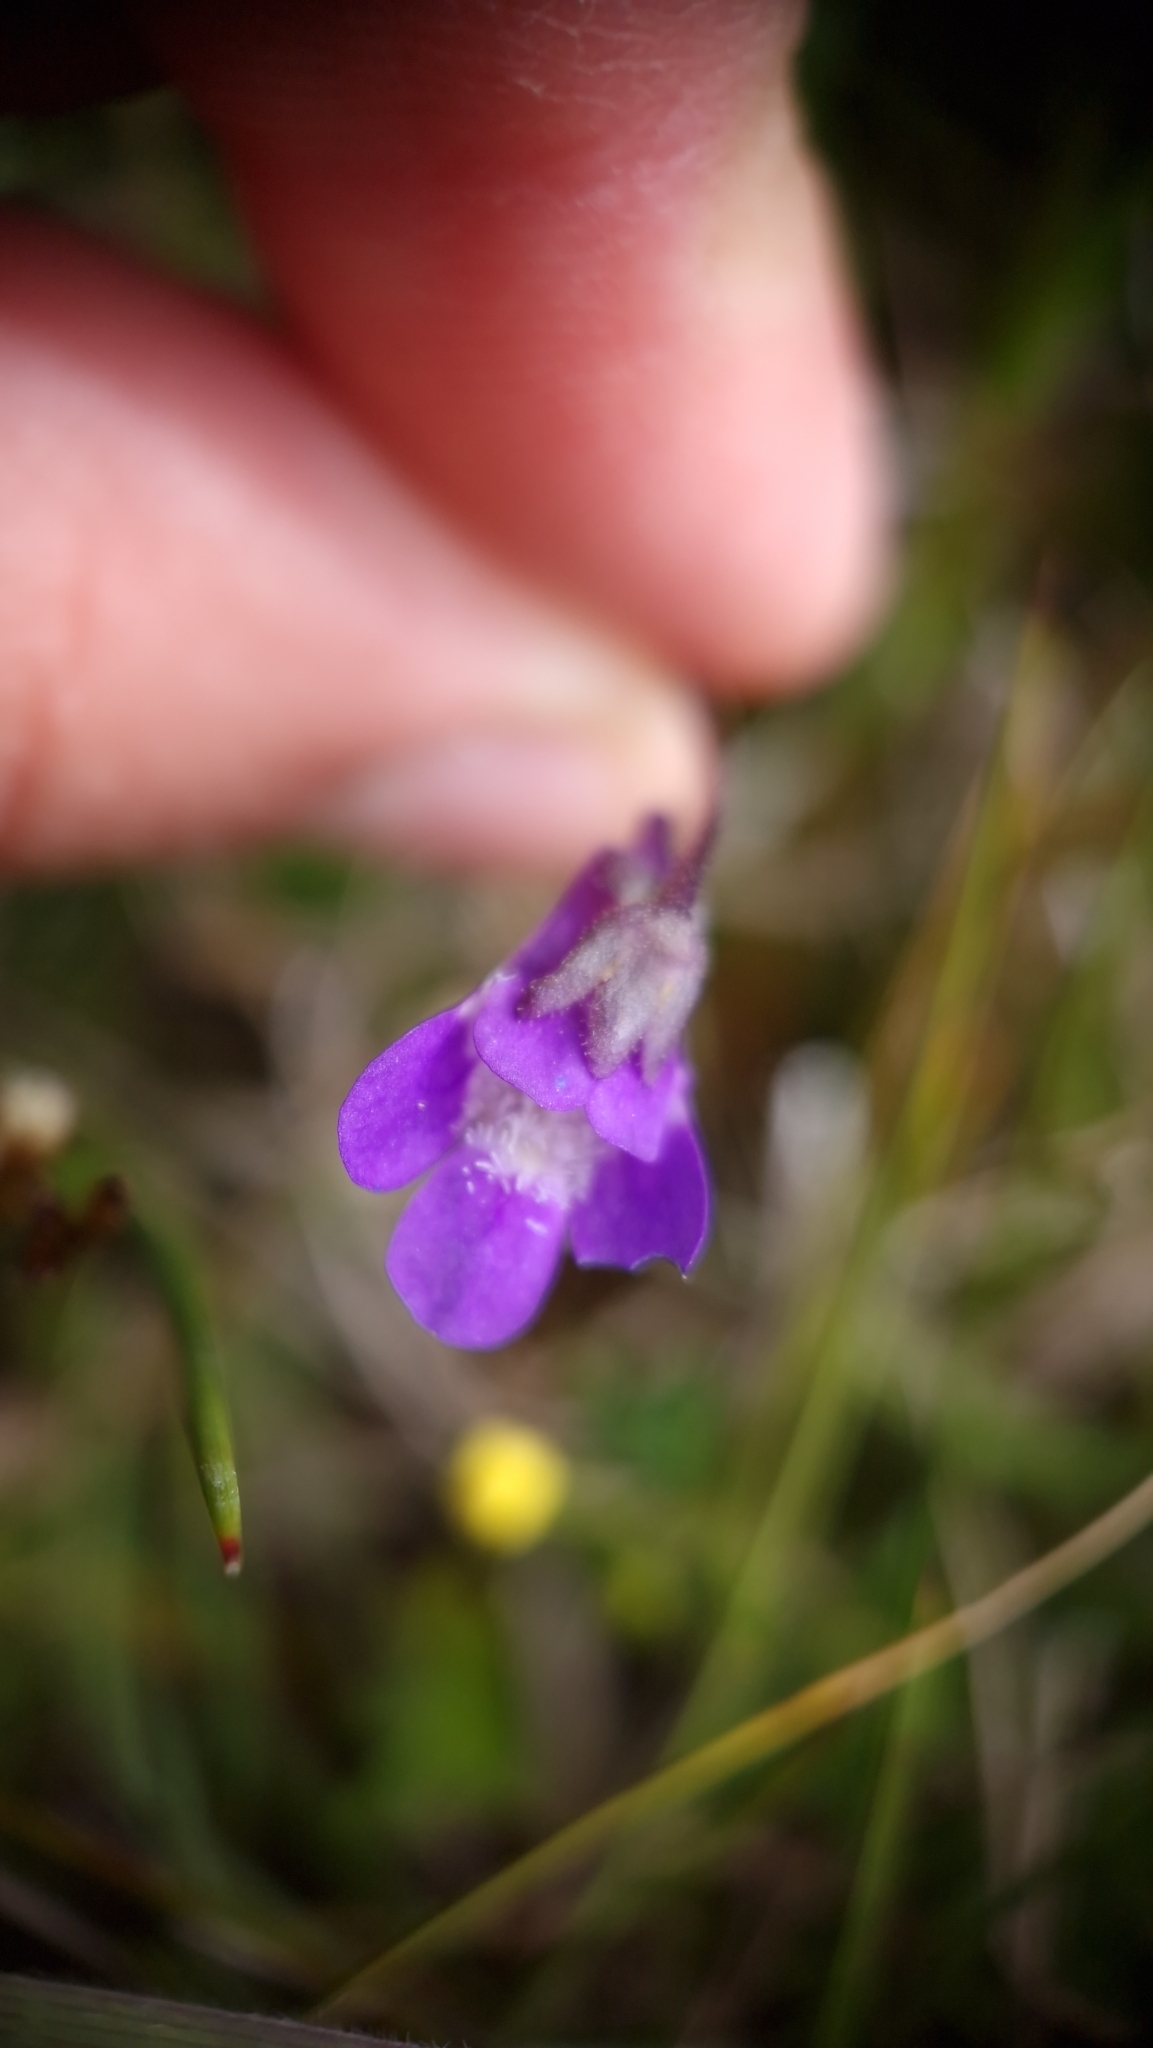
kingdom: Plantae
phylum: Tracheophyta
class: Magnoliopsida
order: Lamiales
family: Lentibulariaceae
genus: Pinguicula
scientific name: Pinguicula vulgaris
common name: Common butterwort
